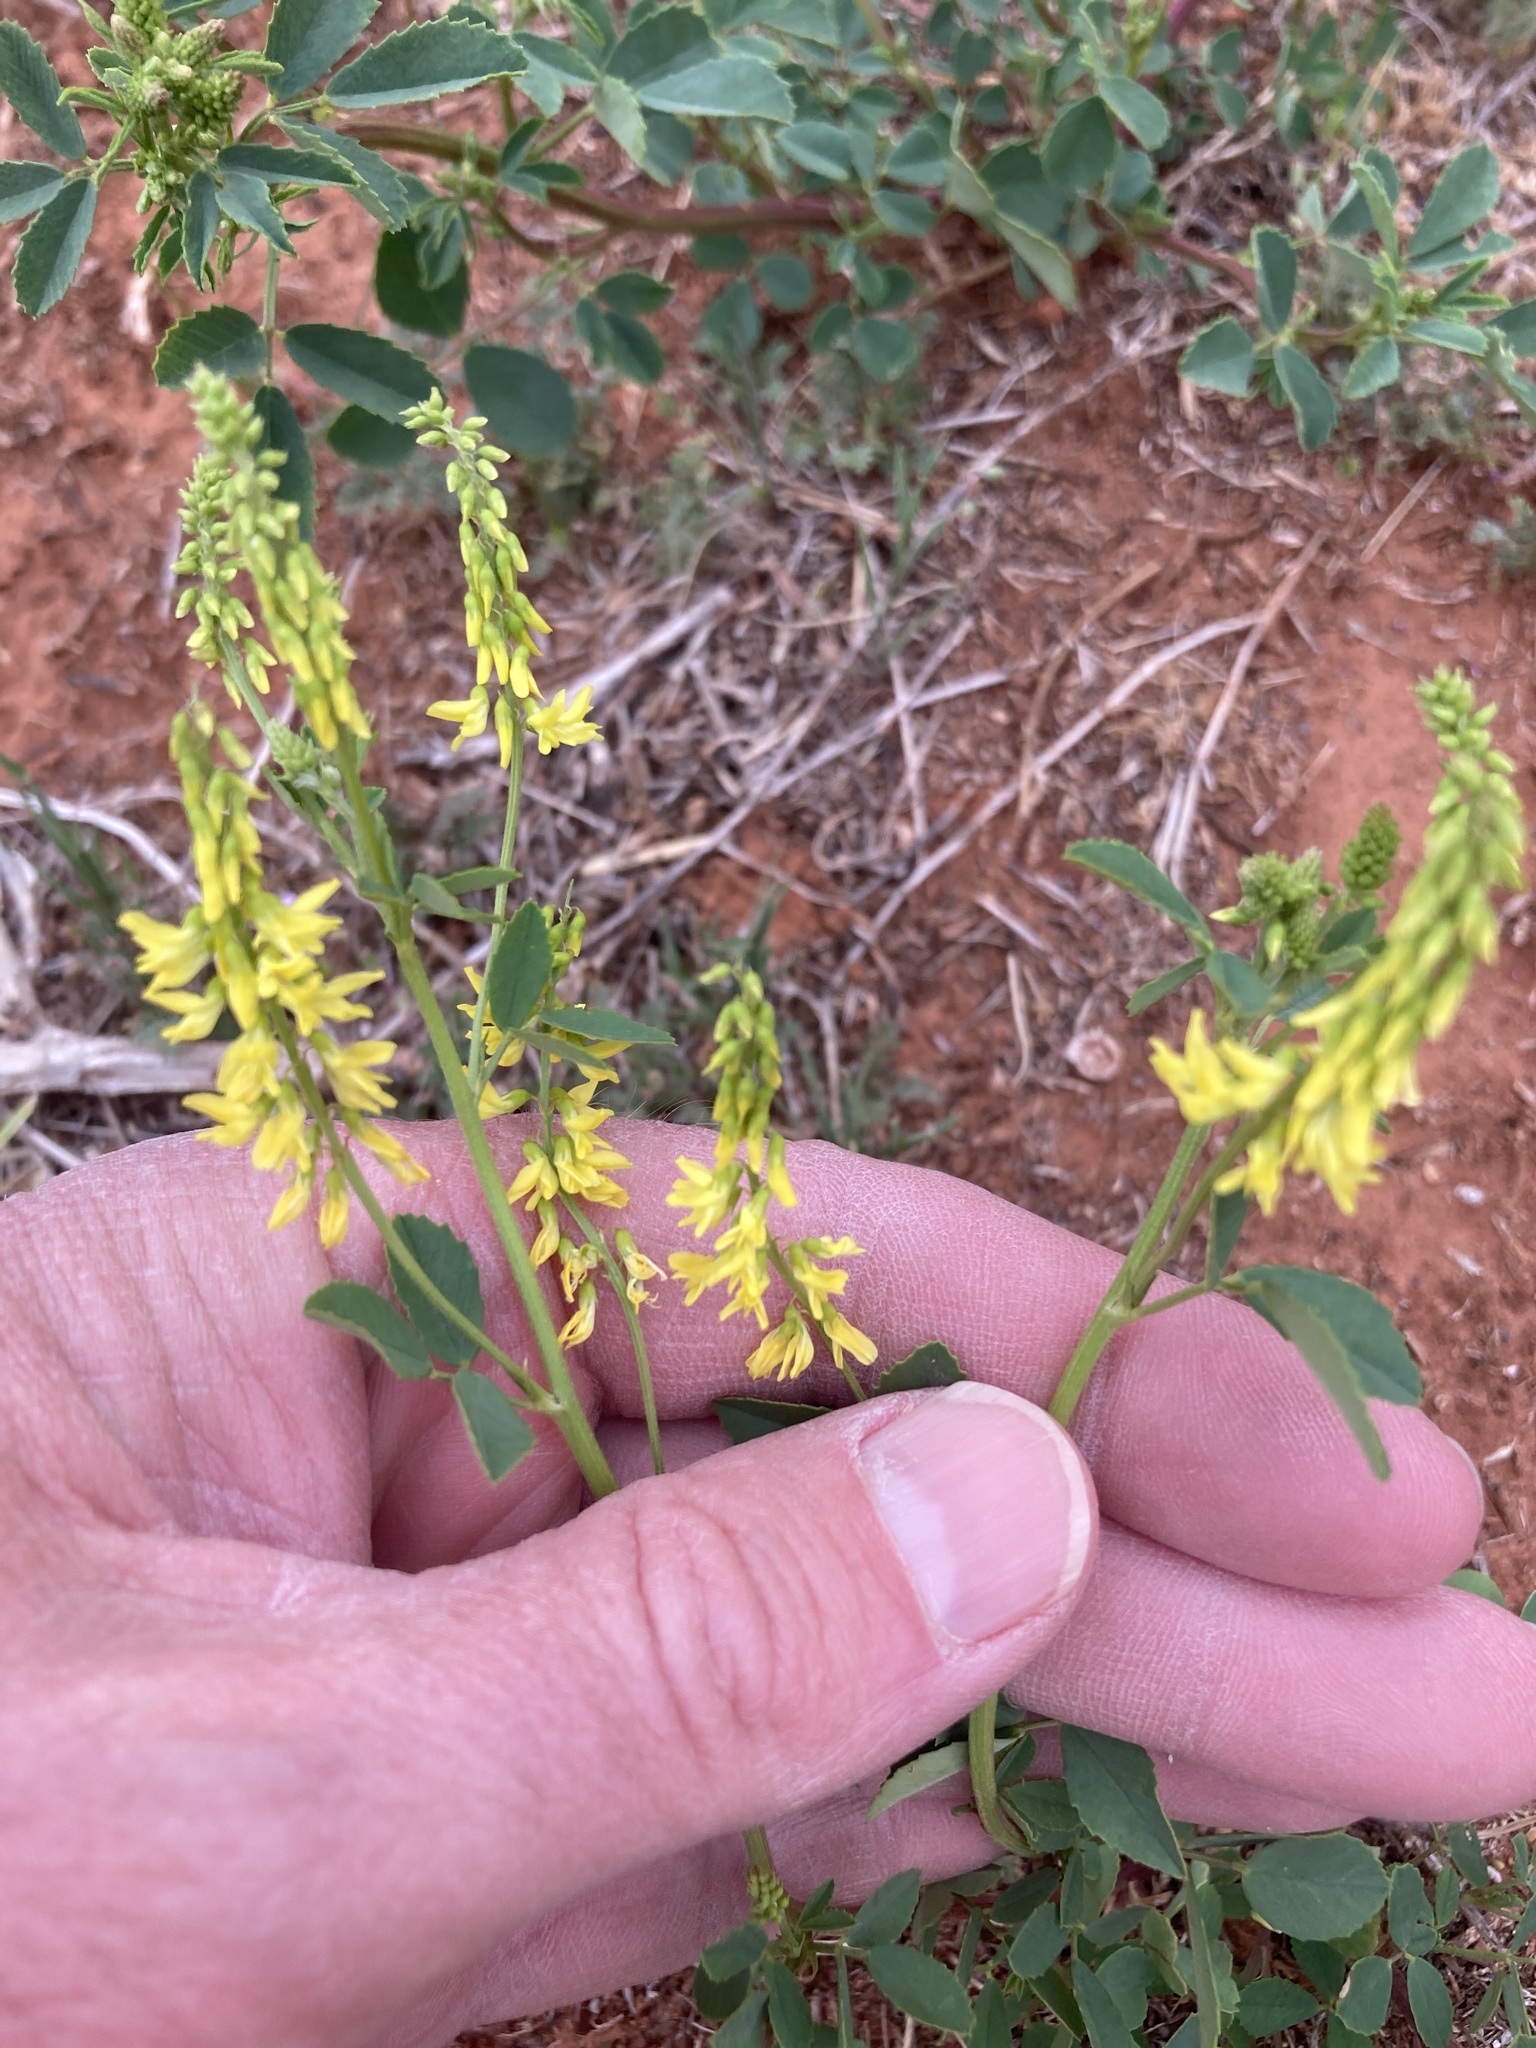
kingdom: Plantae
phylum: Tracheophyta
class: Magnoliopsida
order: Fabales
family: Fabaceae
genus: Melilotus
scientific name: Melilotus officinalis
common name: Sweetclover
